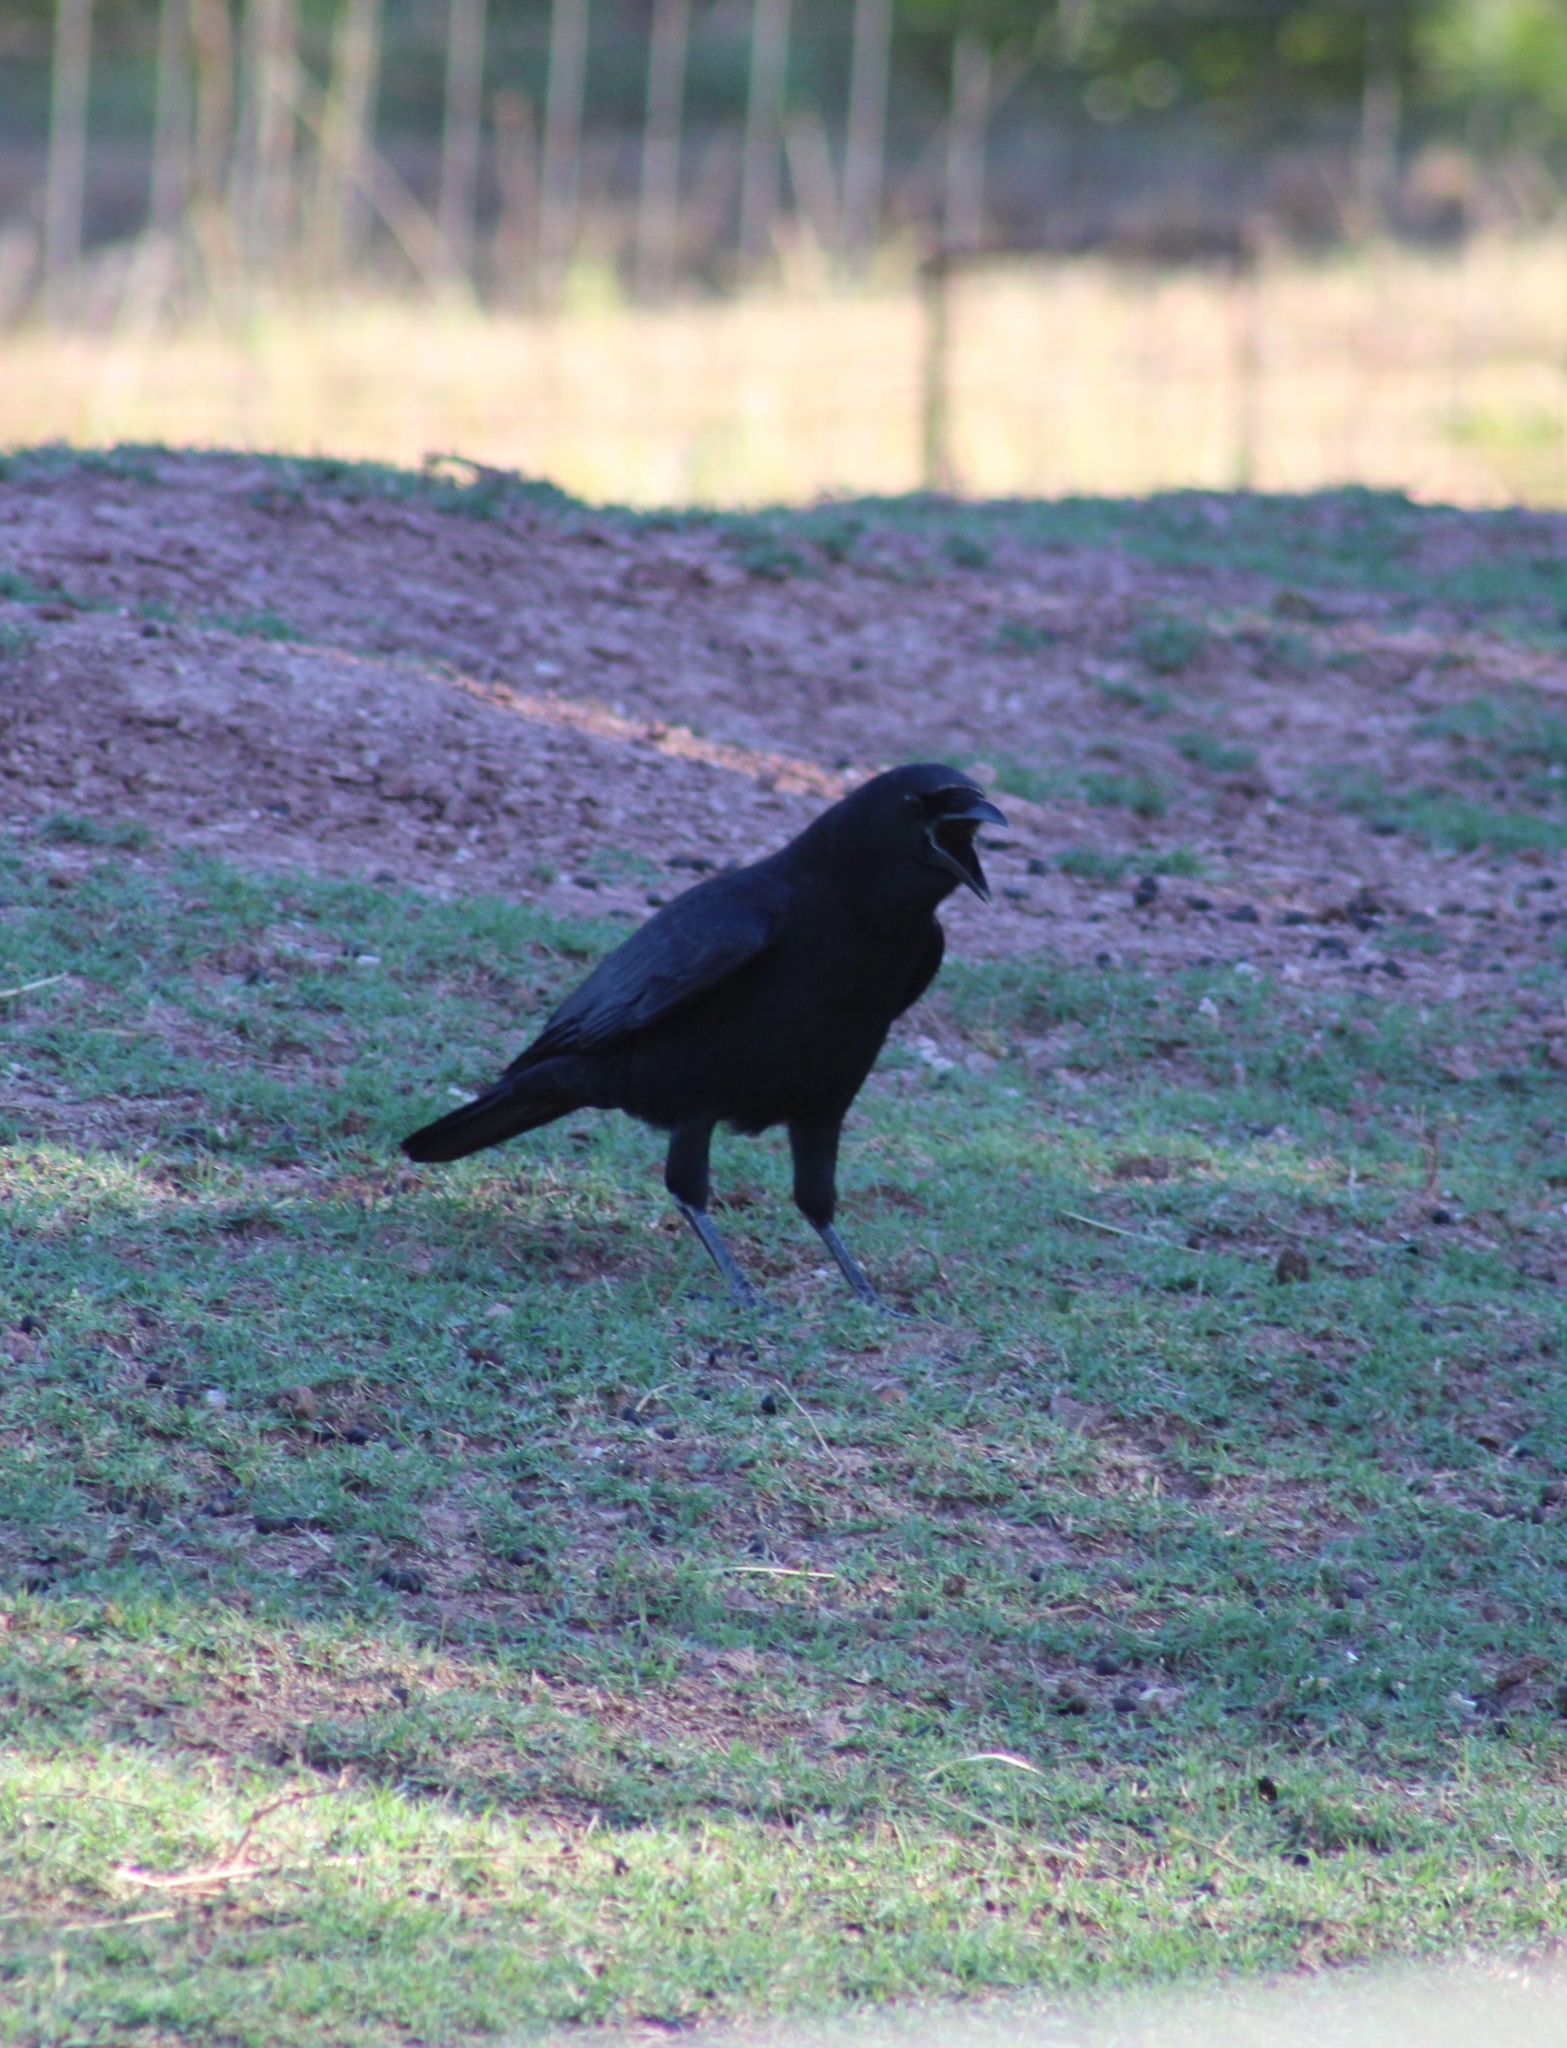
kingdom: Animalia
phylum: Chordata
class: Aves
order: Passeriformes
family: Corvidae
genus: Corvus
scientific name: Corvus brachyrhynchos
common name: American crow
